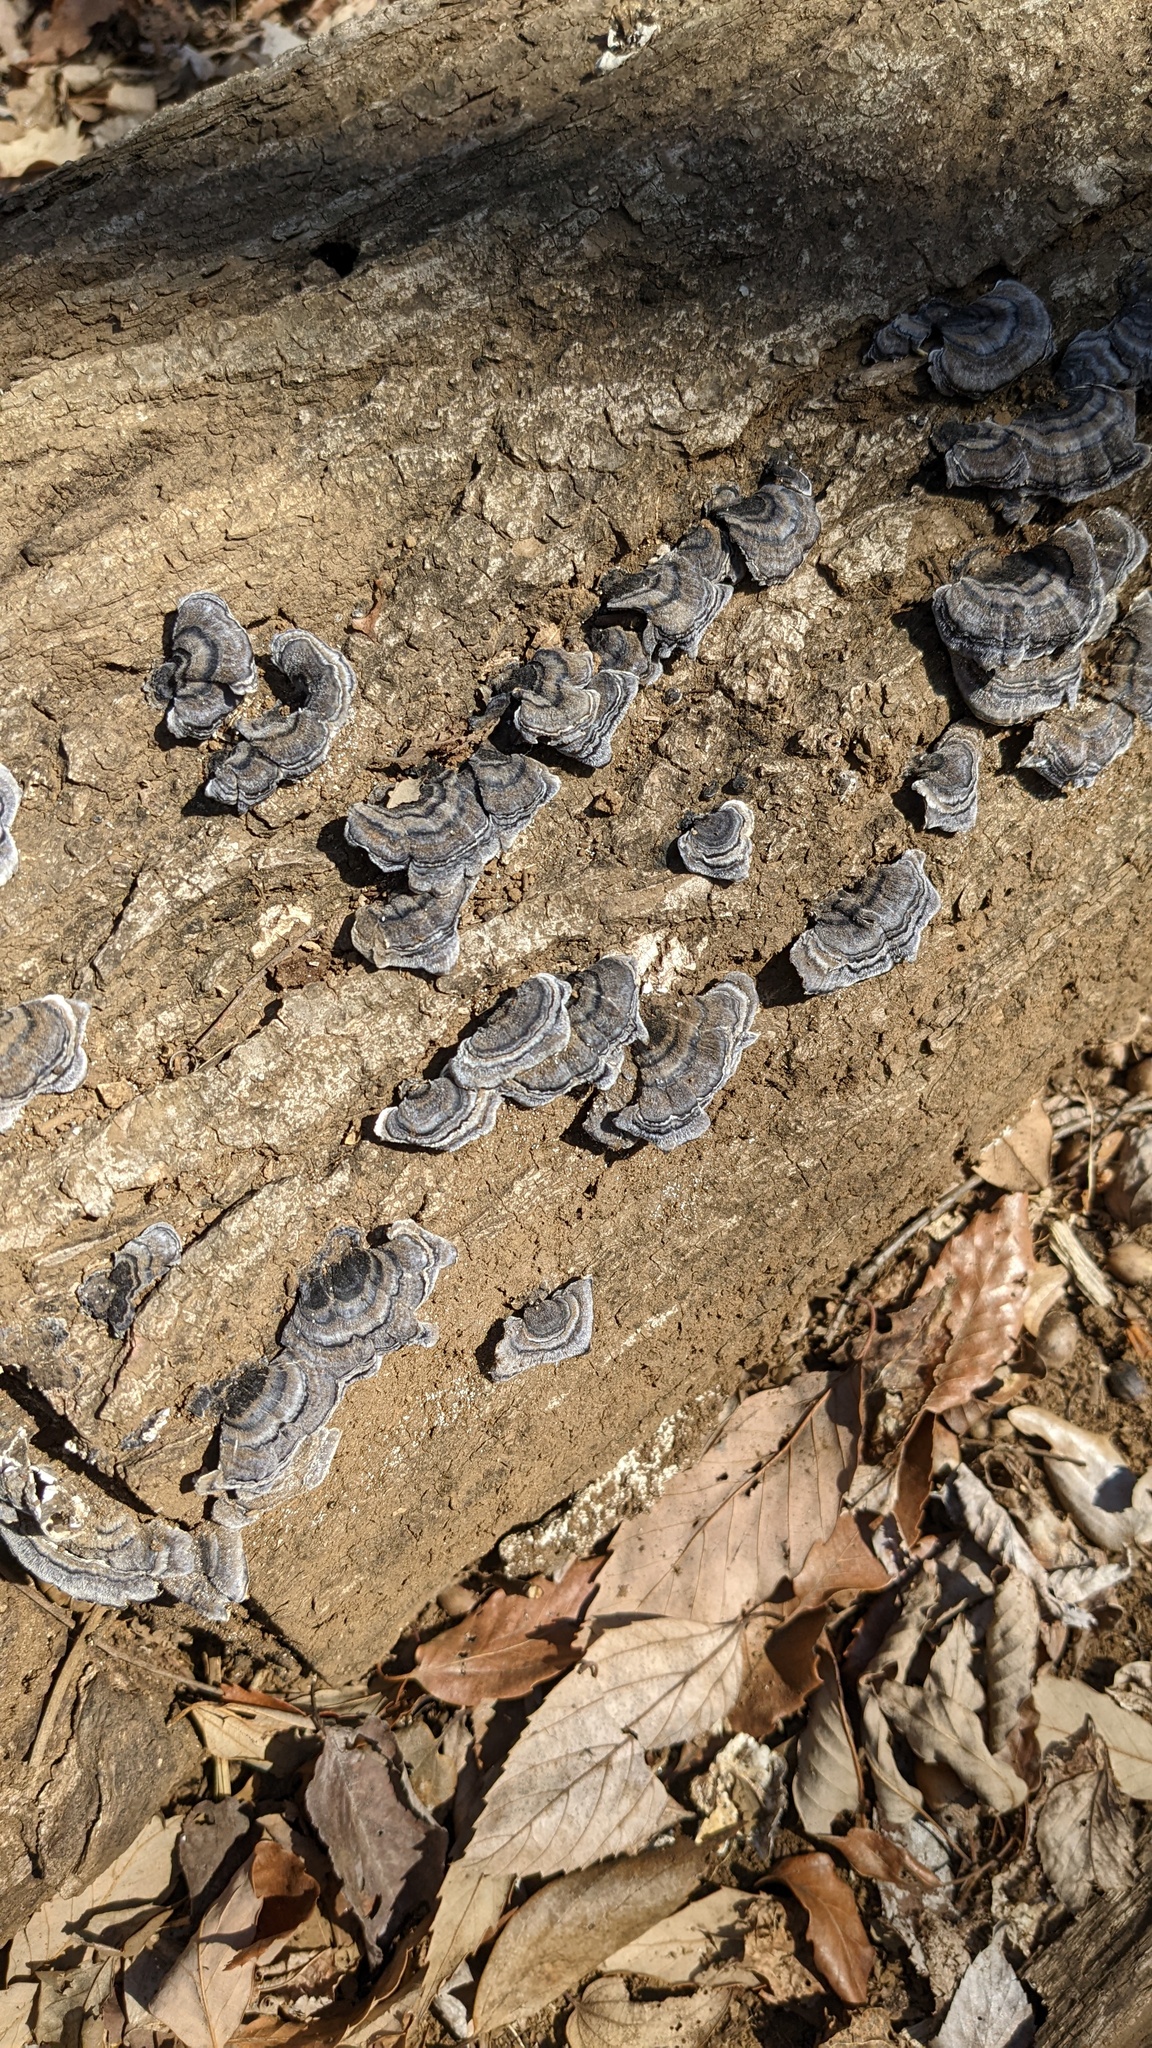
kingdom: Fungi
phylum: Basidiomycota
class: Agaricomycetes
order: Polyporales
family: Polyporaceae
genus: Trametes
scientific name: Trametes versicolor
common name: Turkeytail
